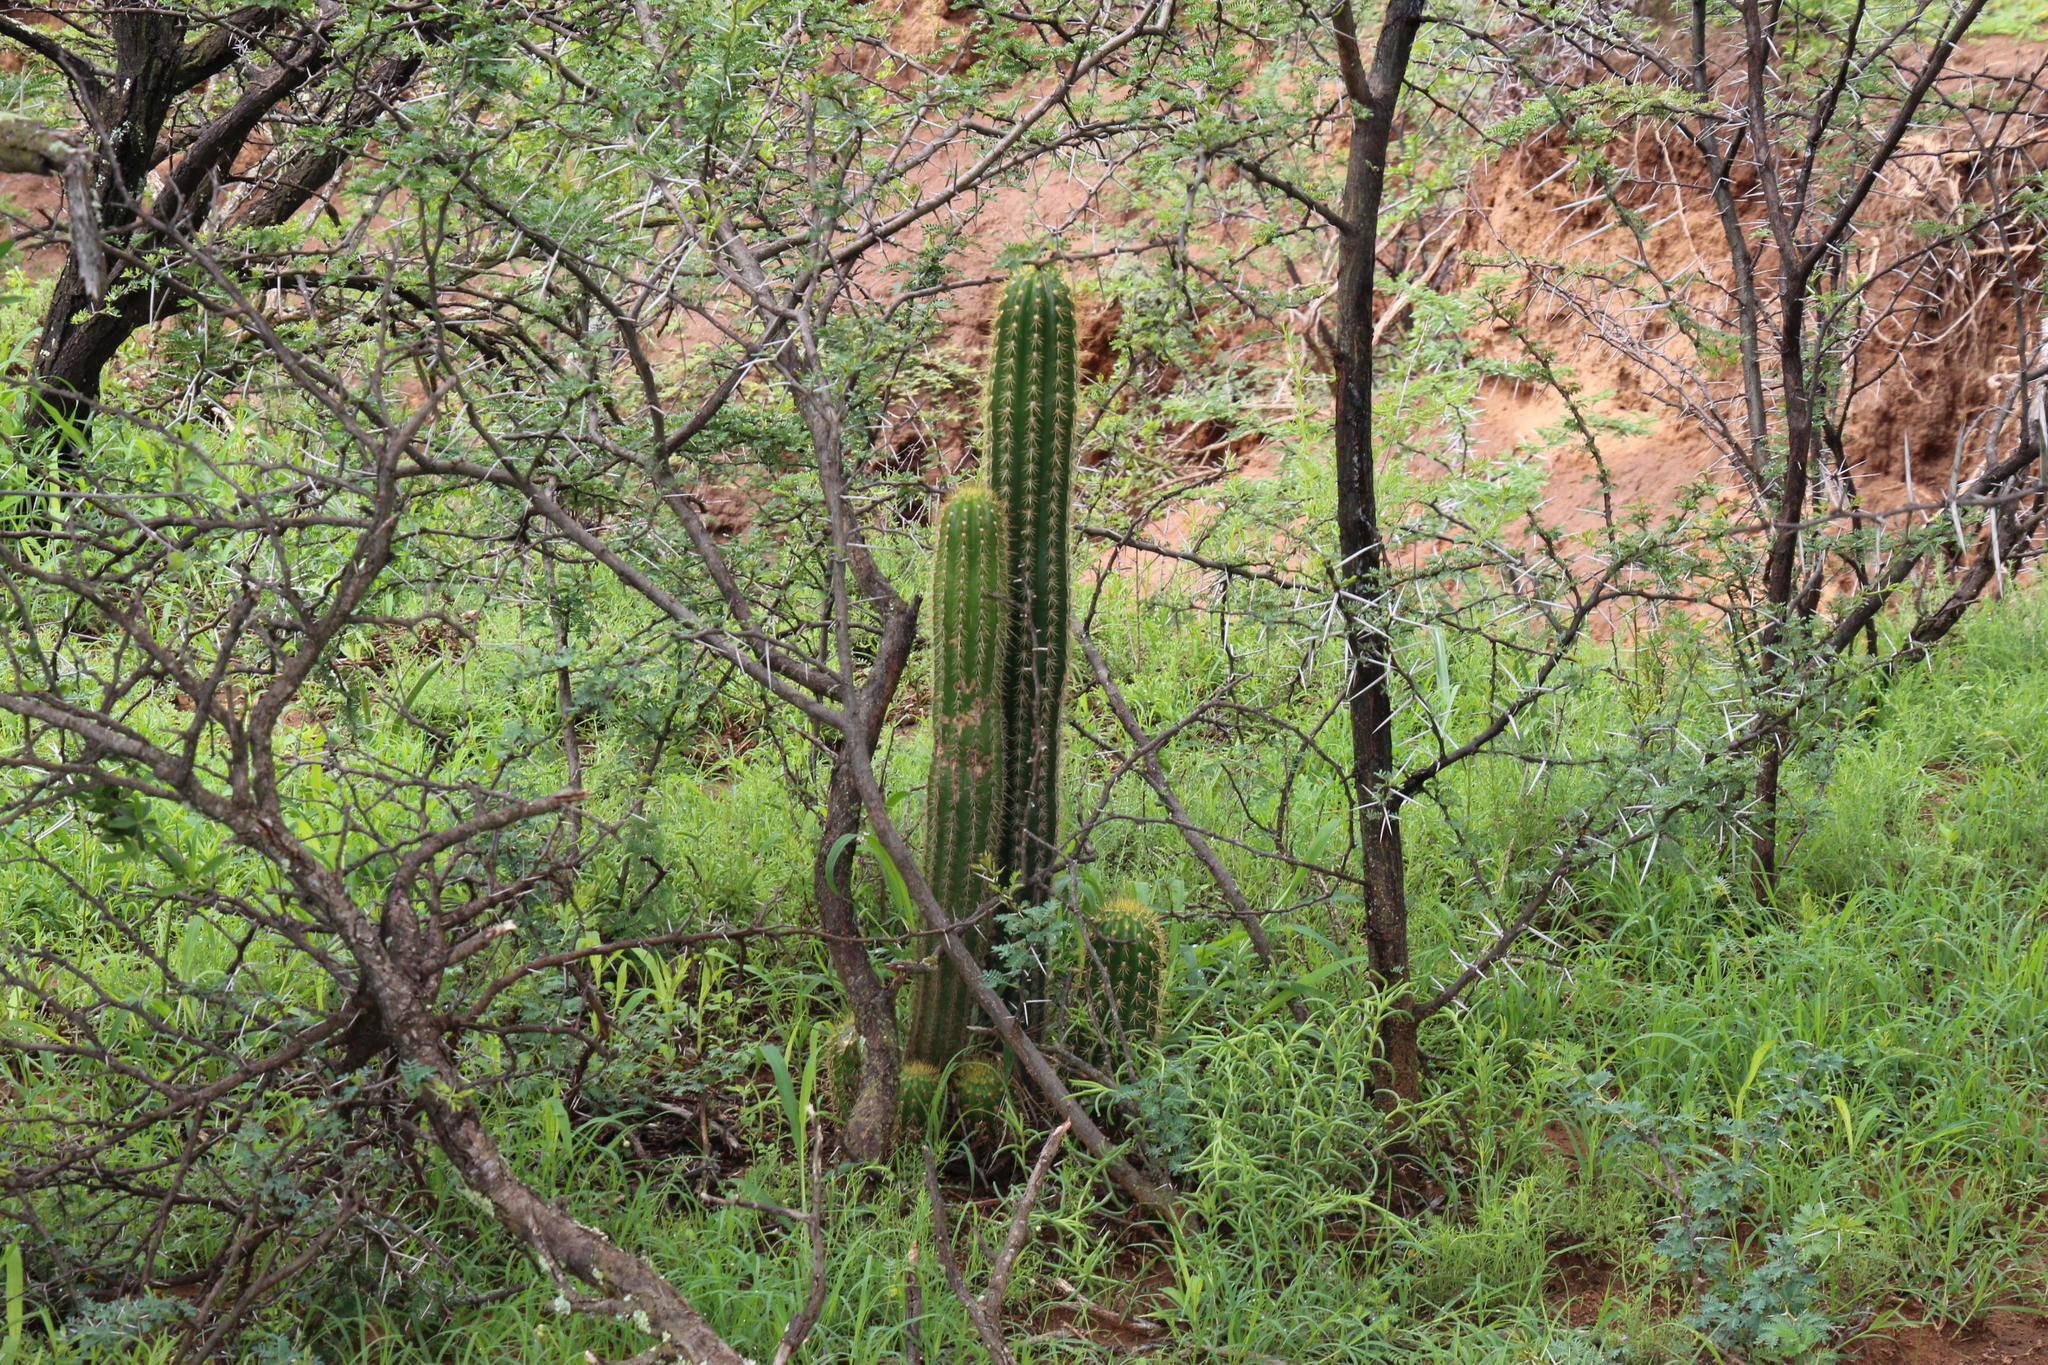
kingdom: Plantae
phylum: Tracheophyta
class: Magnoliopsida
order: Caryophyllales
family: Cactaceae
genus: Soehrensia
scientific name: Soehrensia spachiana
